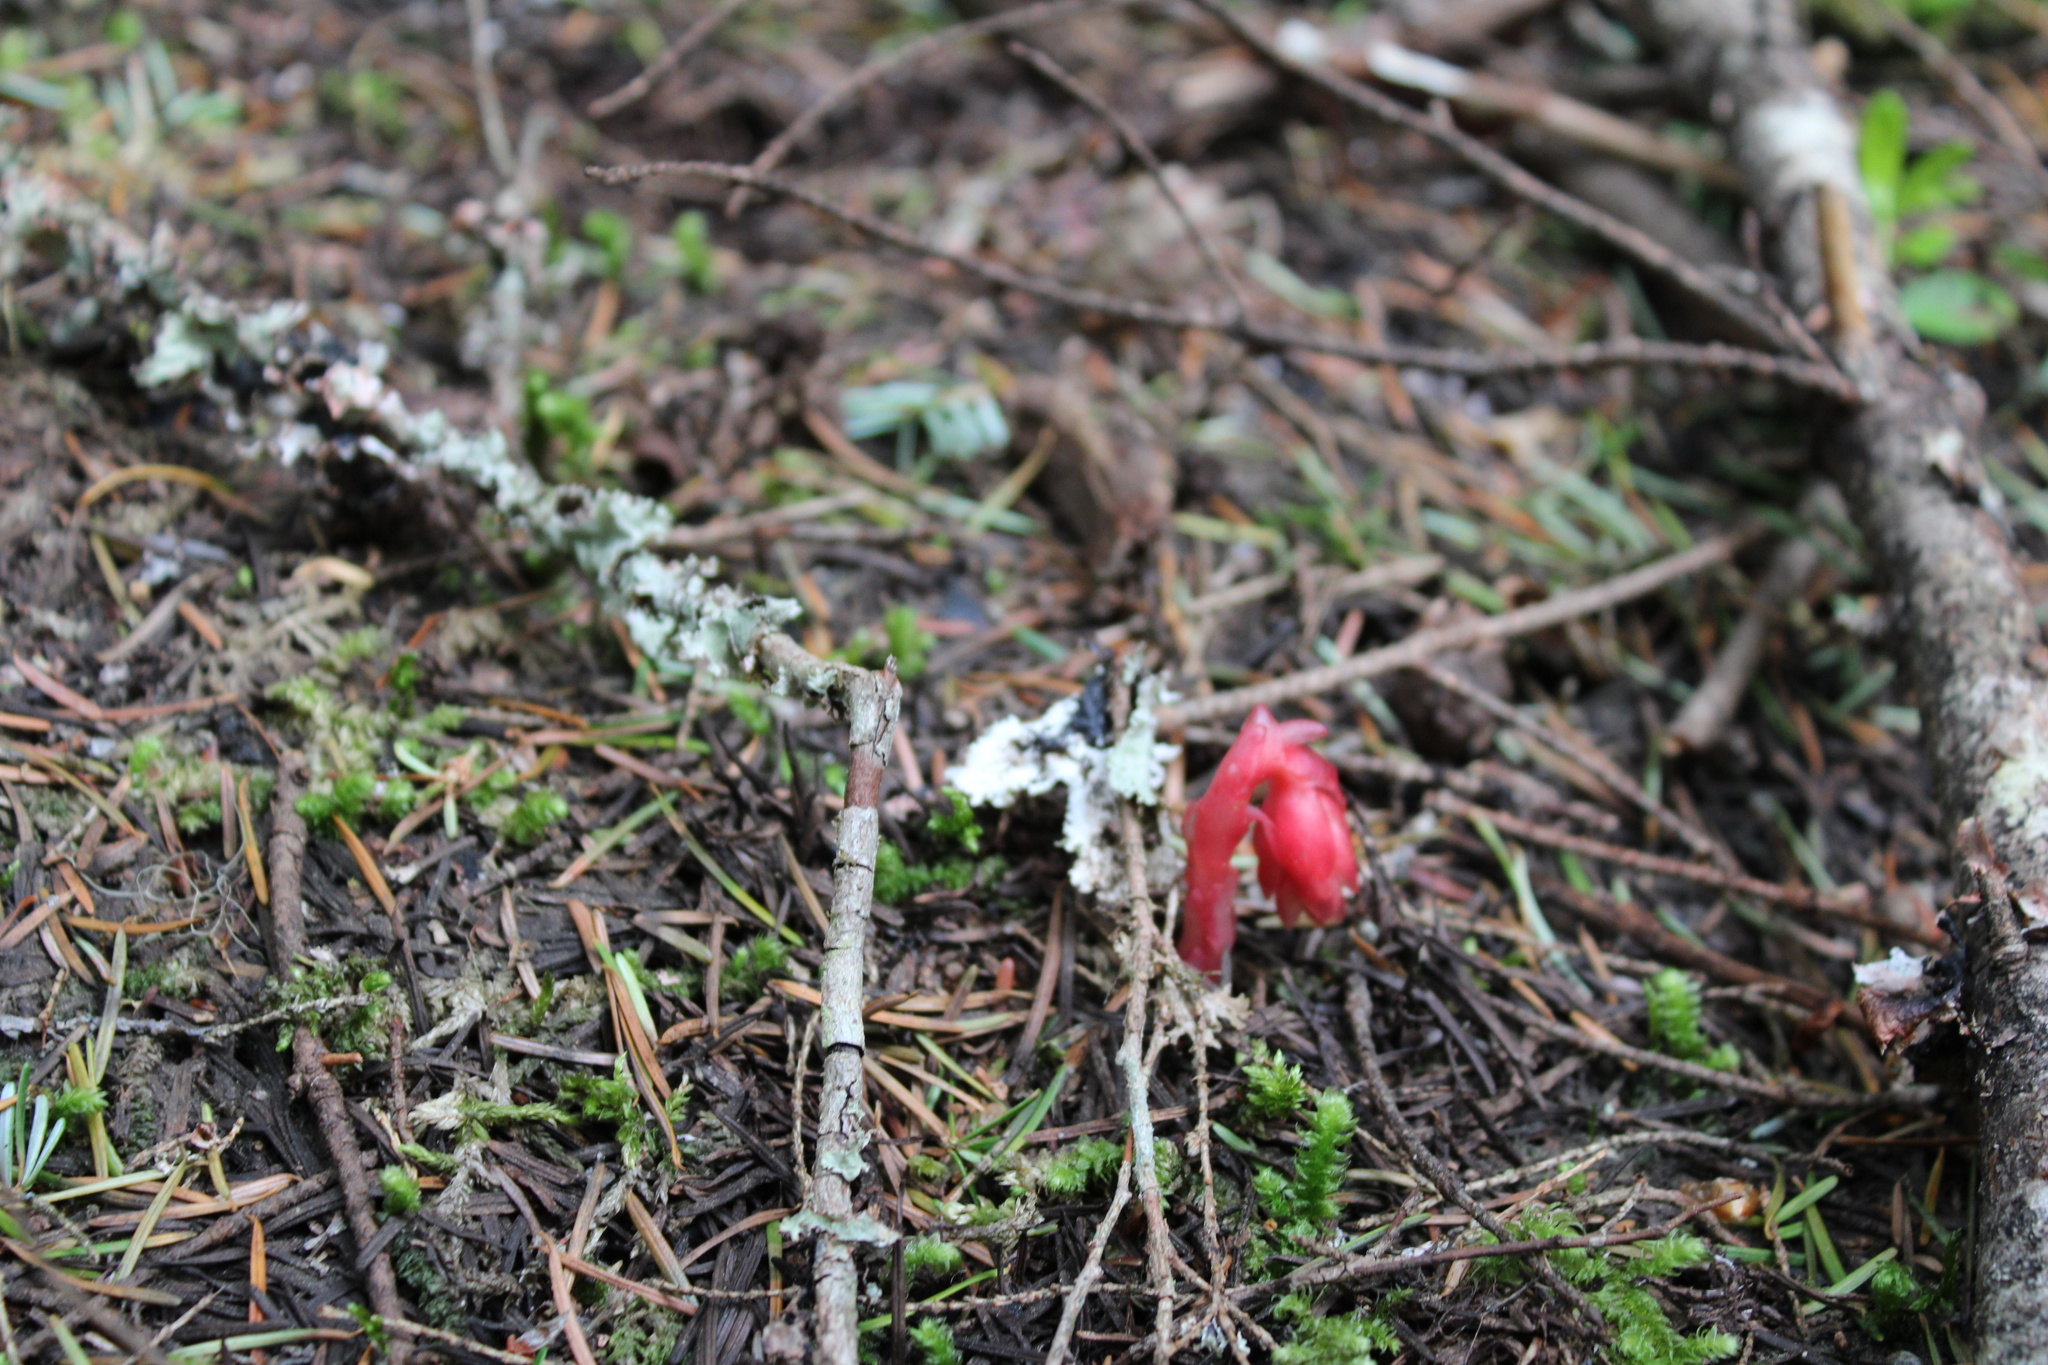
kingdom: Plantae
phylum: Tracheophyta
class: Magnoliopsida
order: Ericales
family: Ericaceae
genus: Hypopitys
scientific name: Hypopitys monotropa
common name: Yellow bird's-nest
